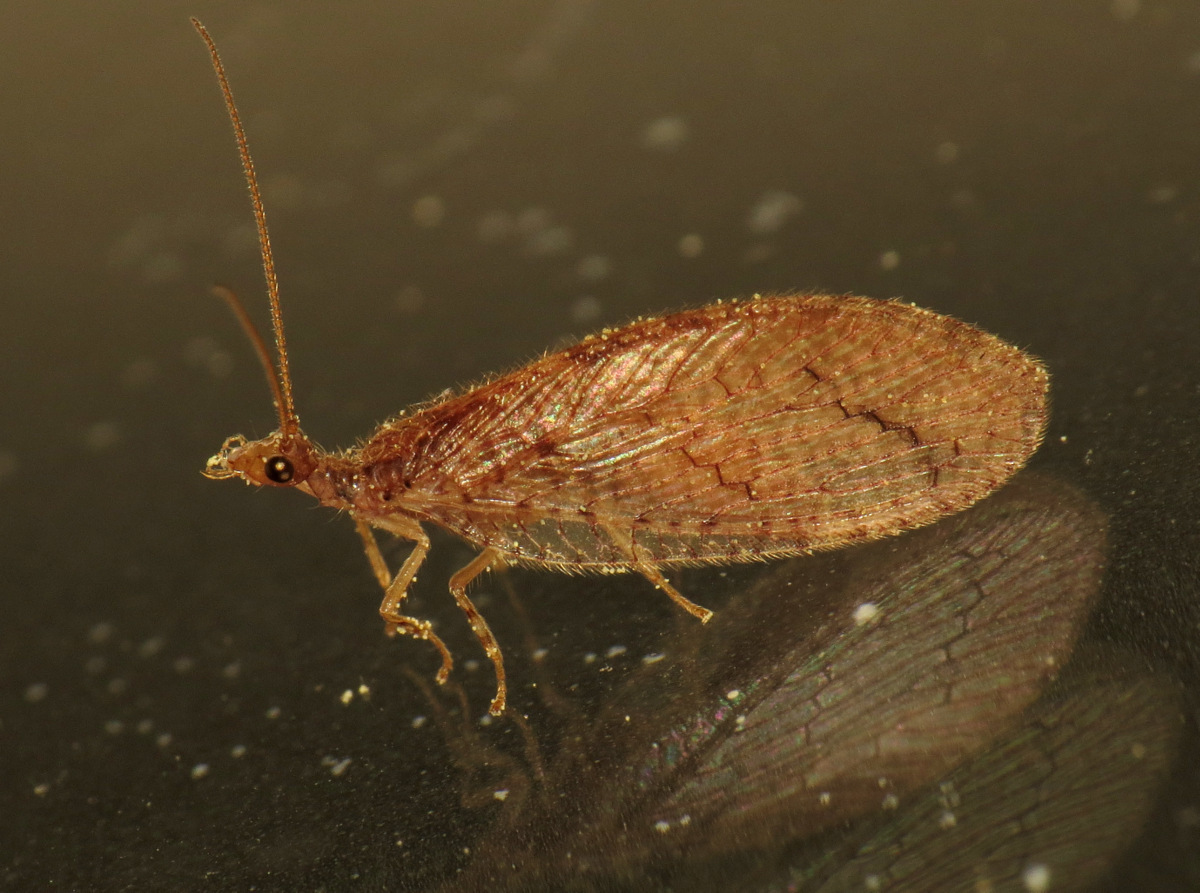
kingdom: Animalia
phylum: Arthropoda
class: Insecta
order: Neuroptera
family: Hemerobiidae
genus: Micromus
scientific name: Micromus posticus
